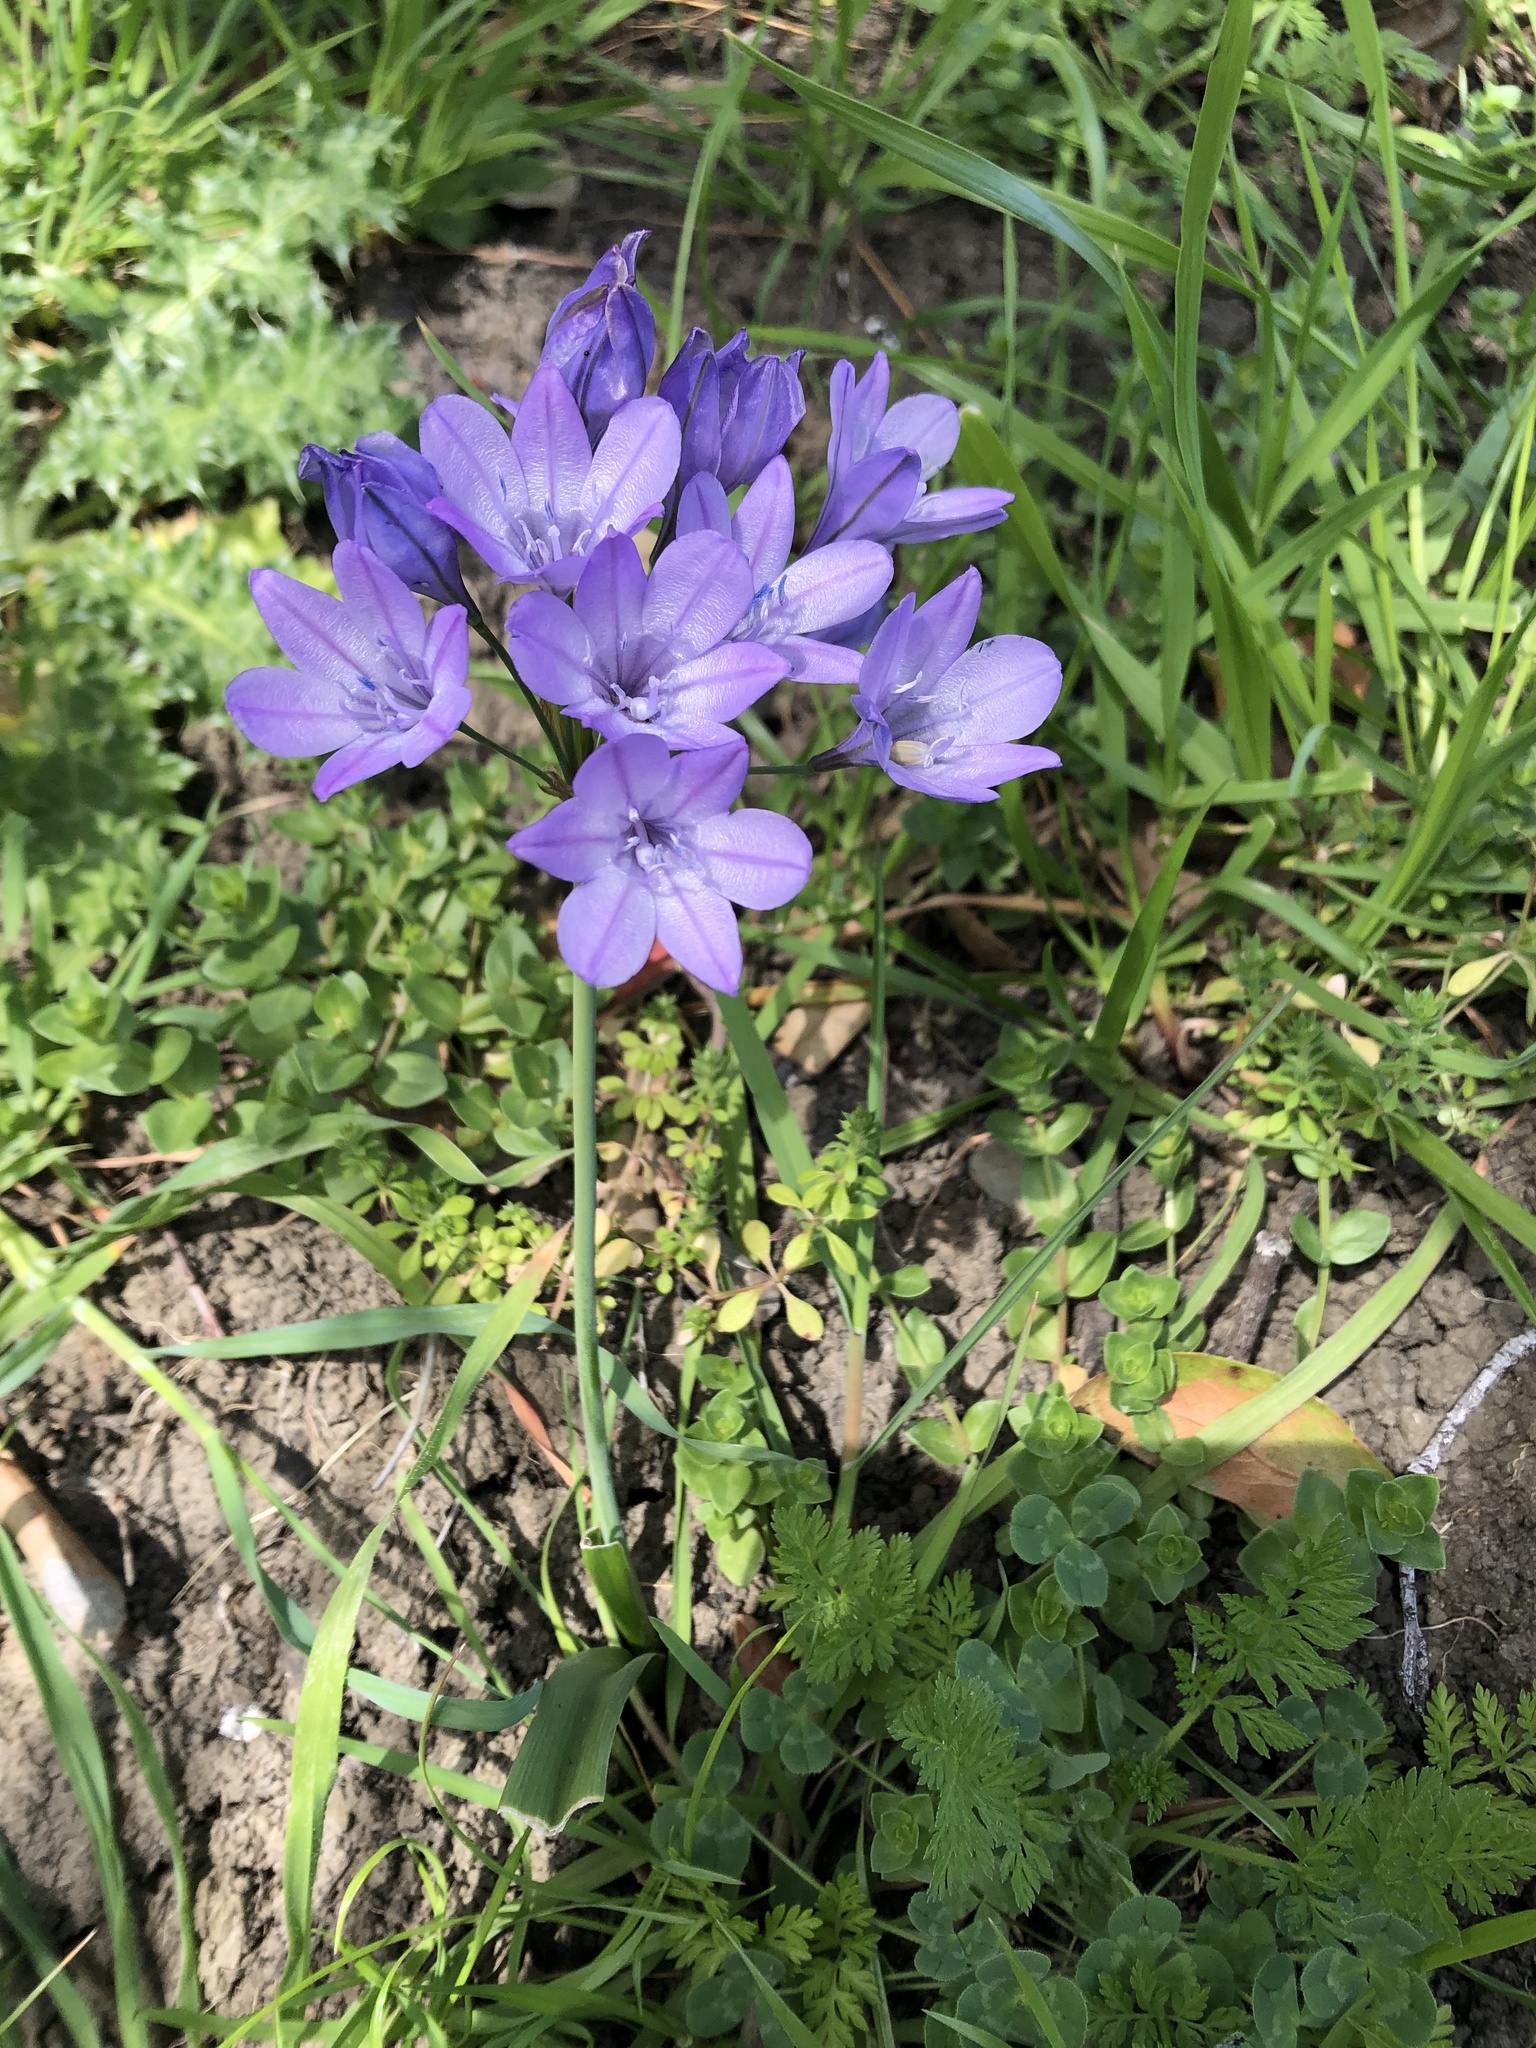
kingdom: Plantae
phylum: Tracheophyta
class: Liliopsida
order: Asparagales
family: Asparagaceae
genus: Triteleia
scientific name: Triteleia laxa
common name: Triplet-lily
